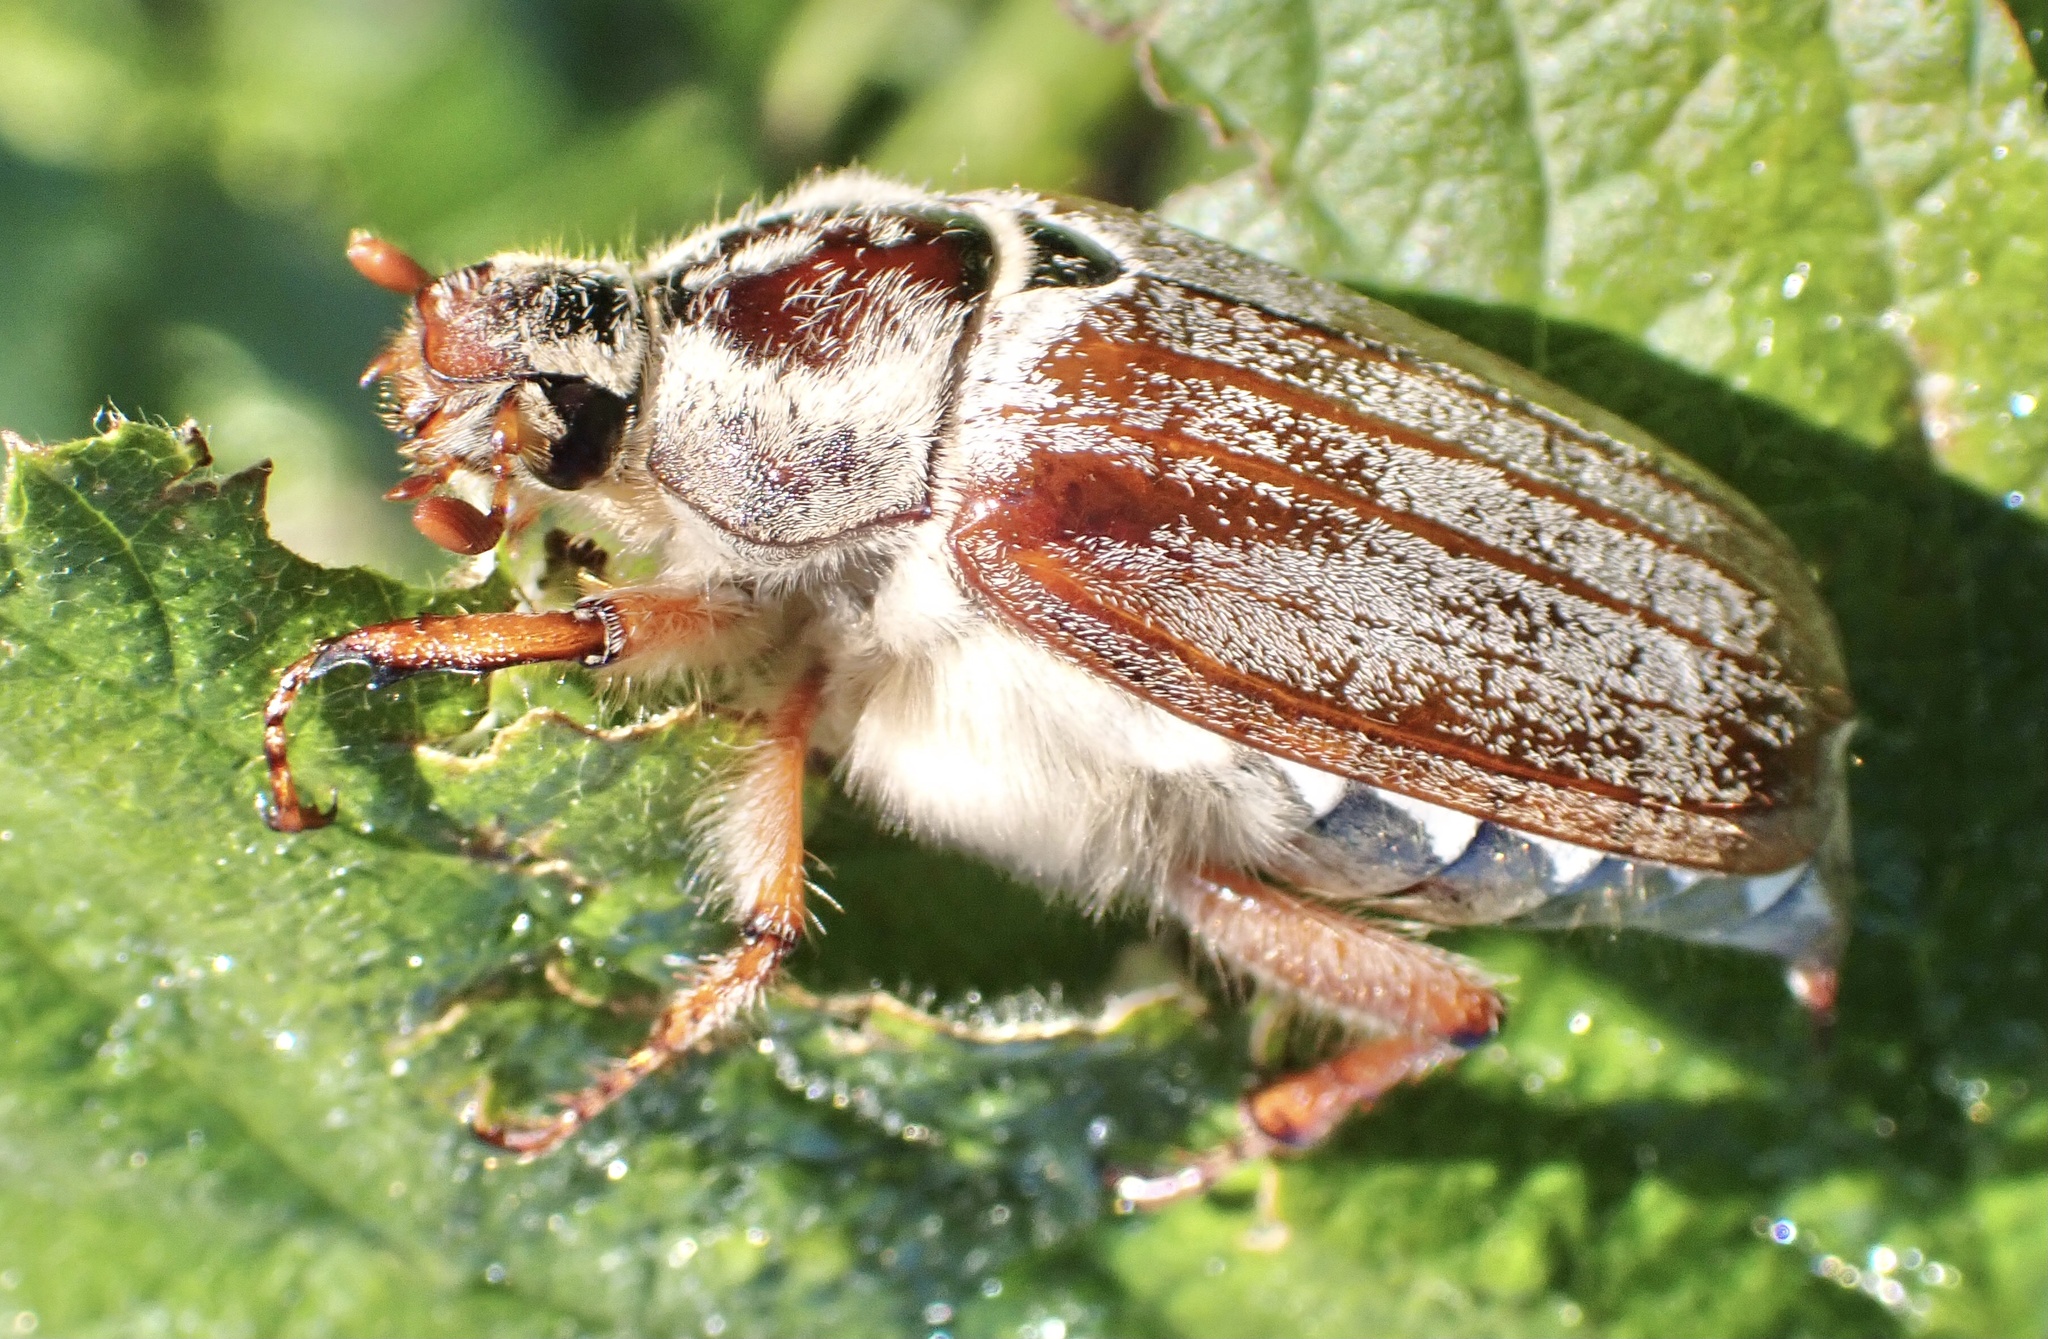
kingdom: Animalia
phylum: Arthropoda
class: Insecta
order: Coleoptera
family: Scarabaeidae
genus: Melolontha
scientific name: Melolontha melolontha
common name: Cockchafer maybeetle
